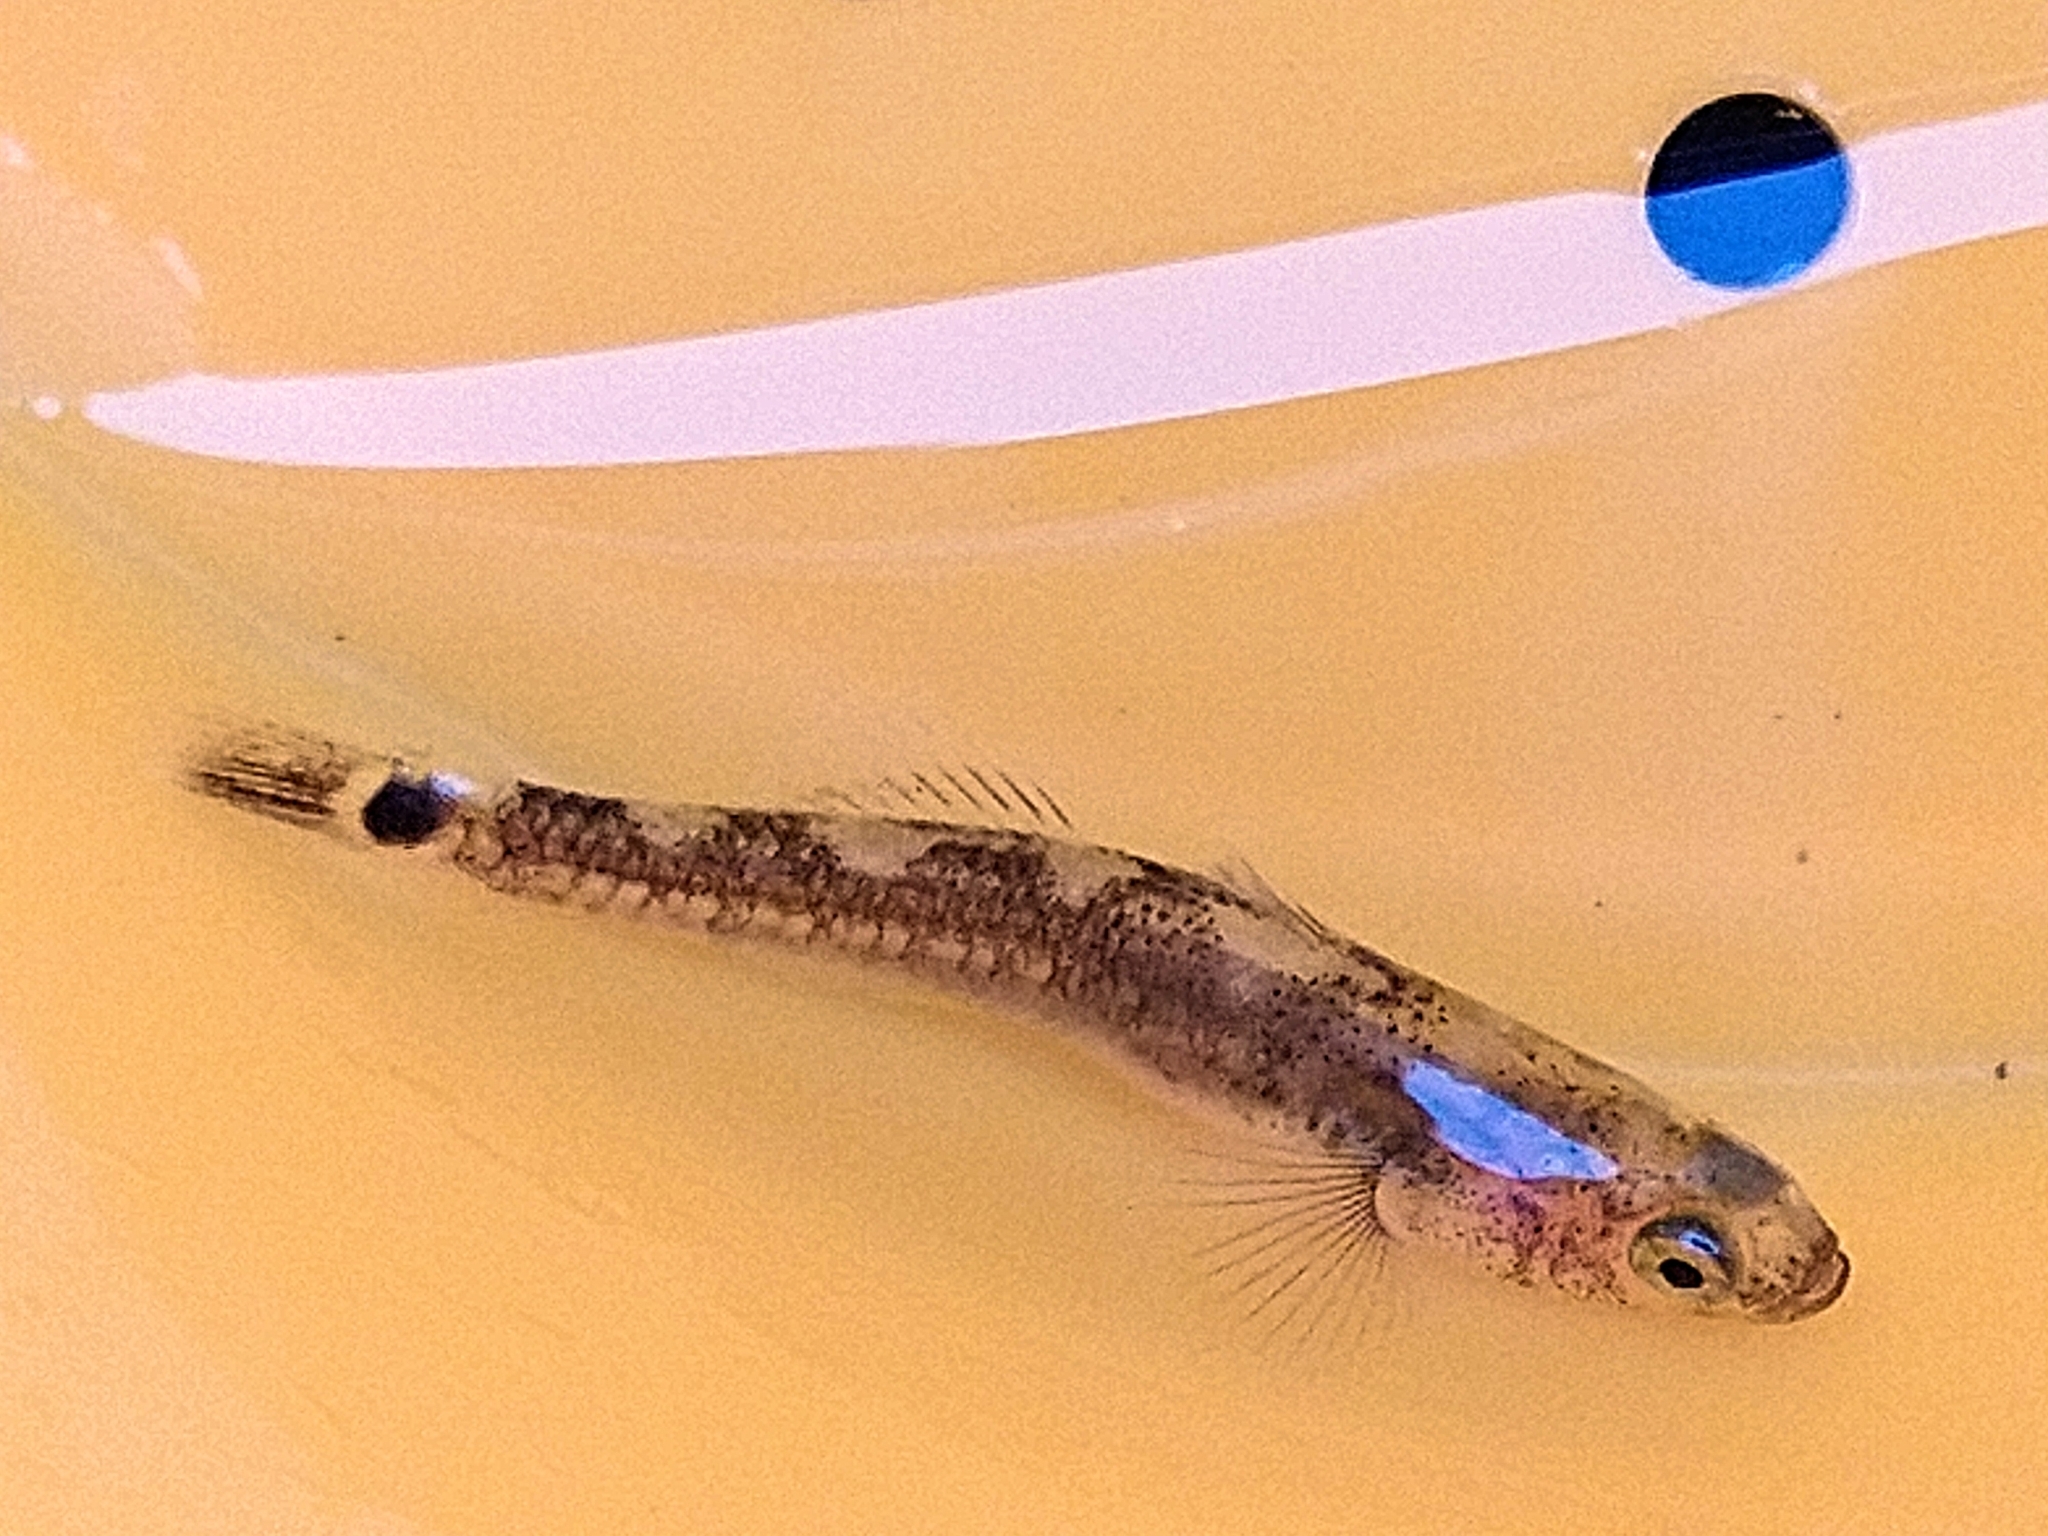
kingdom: Animalia
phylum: Chordata
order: Perciformes
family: Gobiidae
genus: Gobiusculus
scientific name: Gobiusculus flavescens
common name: Two-spotted goby
